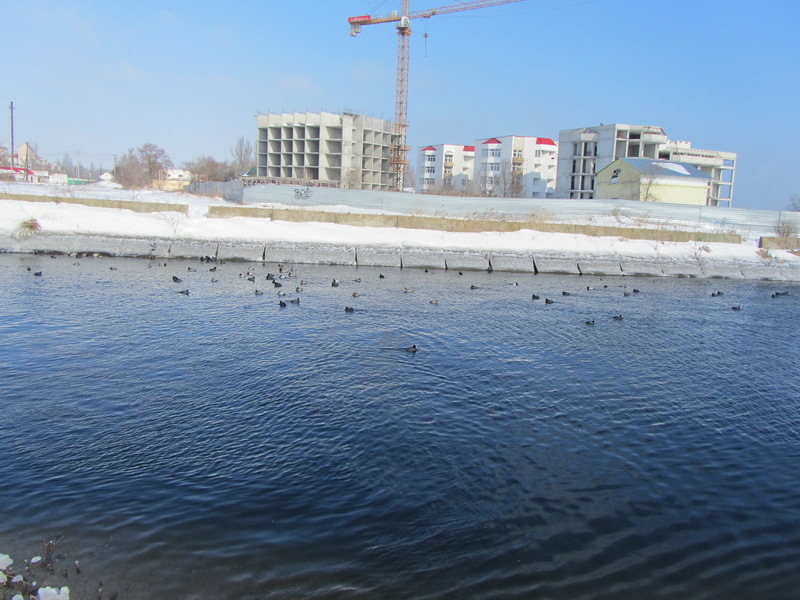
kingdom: Animalia
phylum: Chordata
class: Aves
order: Gruiformes
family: Rallidae
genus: Fulica
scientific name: Fulica atra
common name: Eurasian coot
